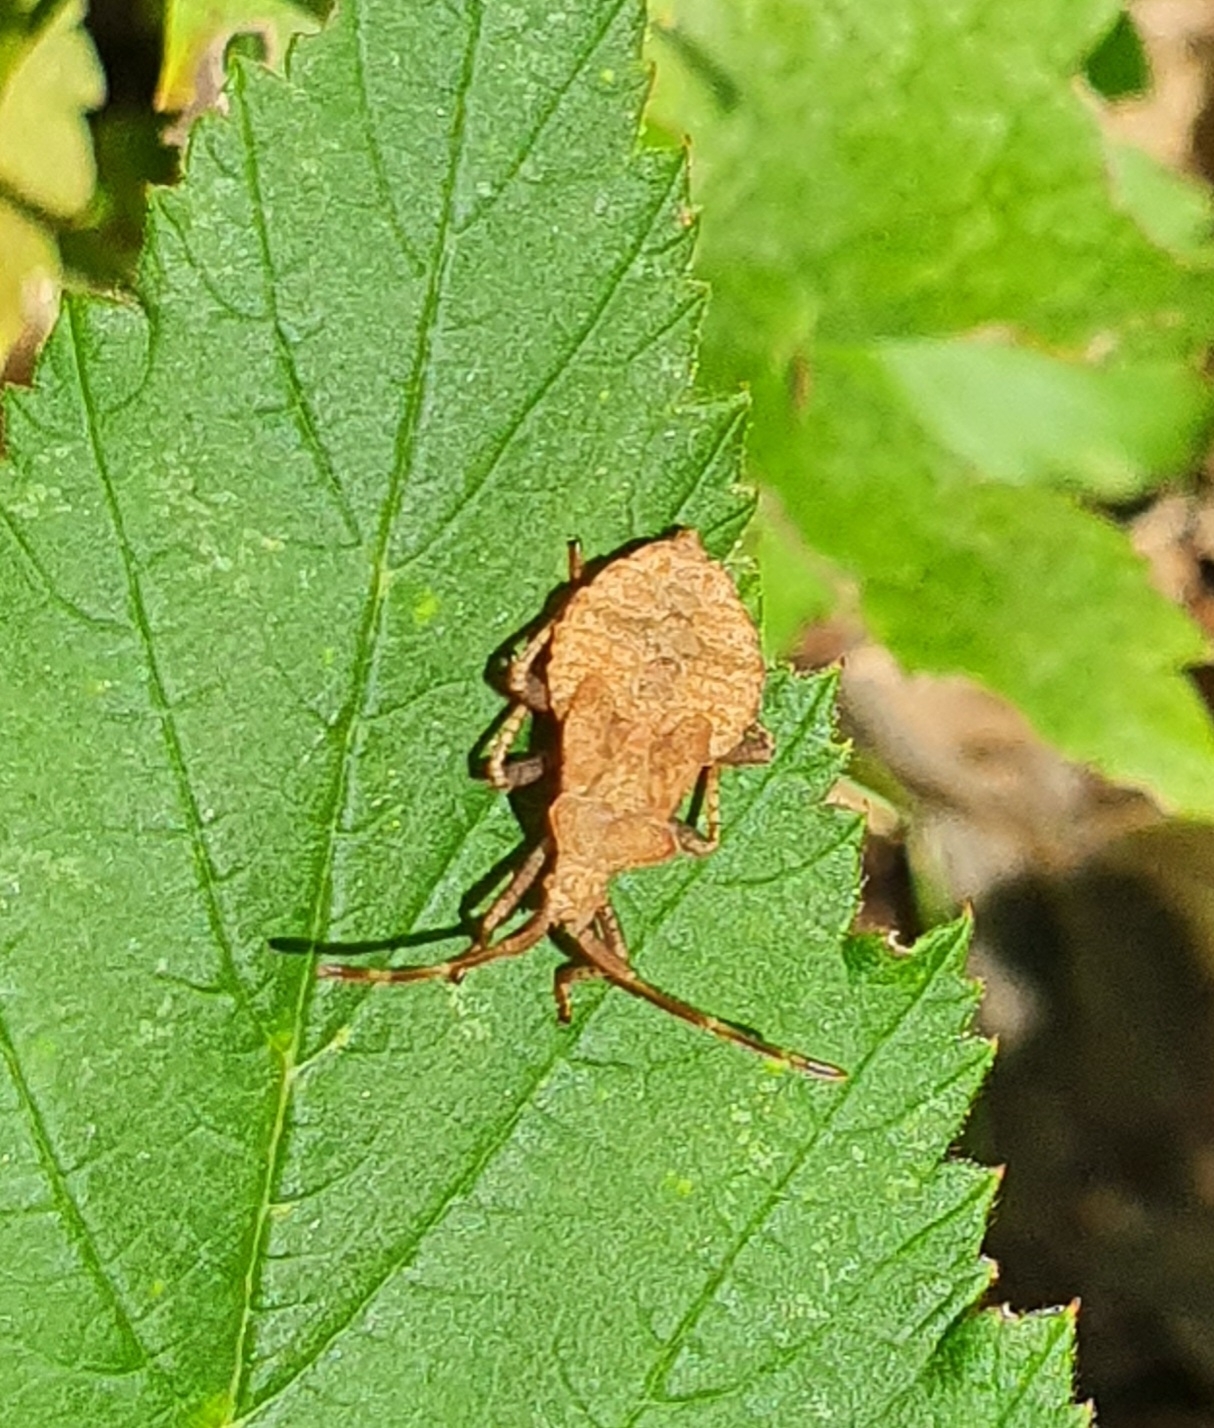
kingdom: Animalia
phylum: Arthropoda
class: Insecta
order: Hemiptera
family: Coreidae
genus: Coreus
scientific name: Coreus marginatus
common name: Dock bug
